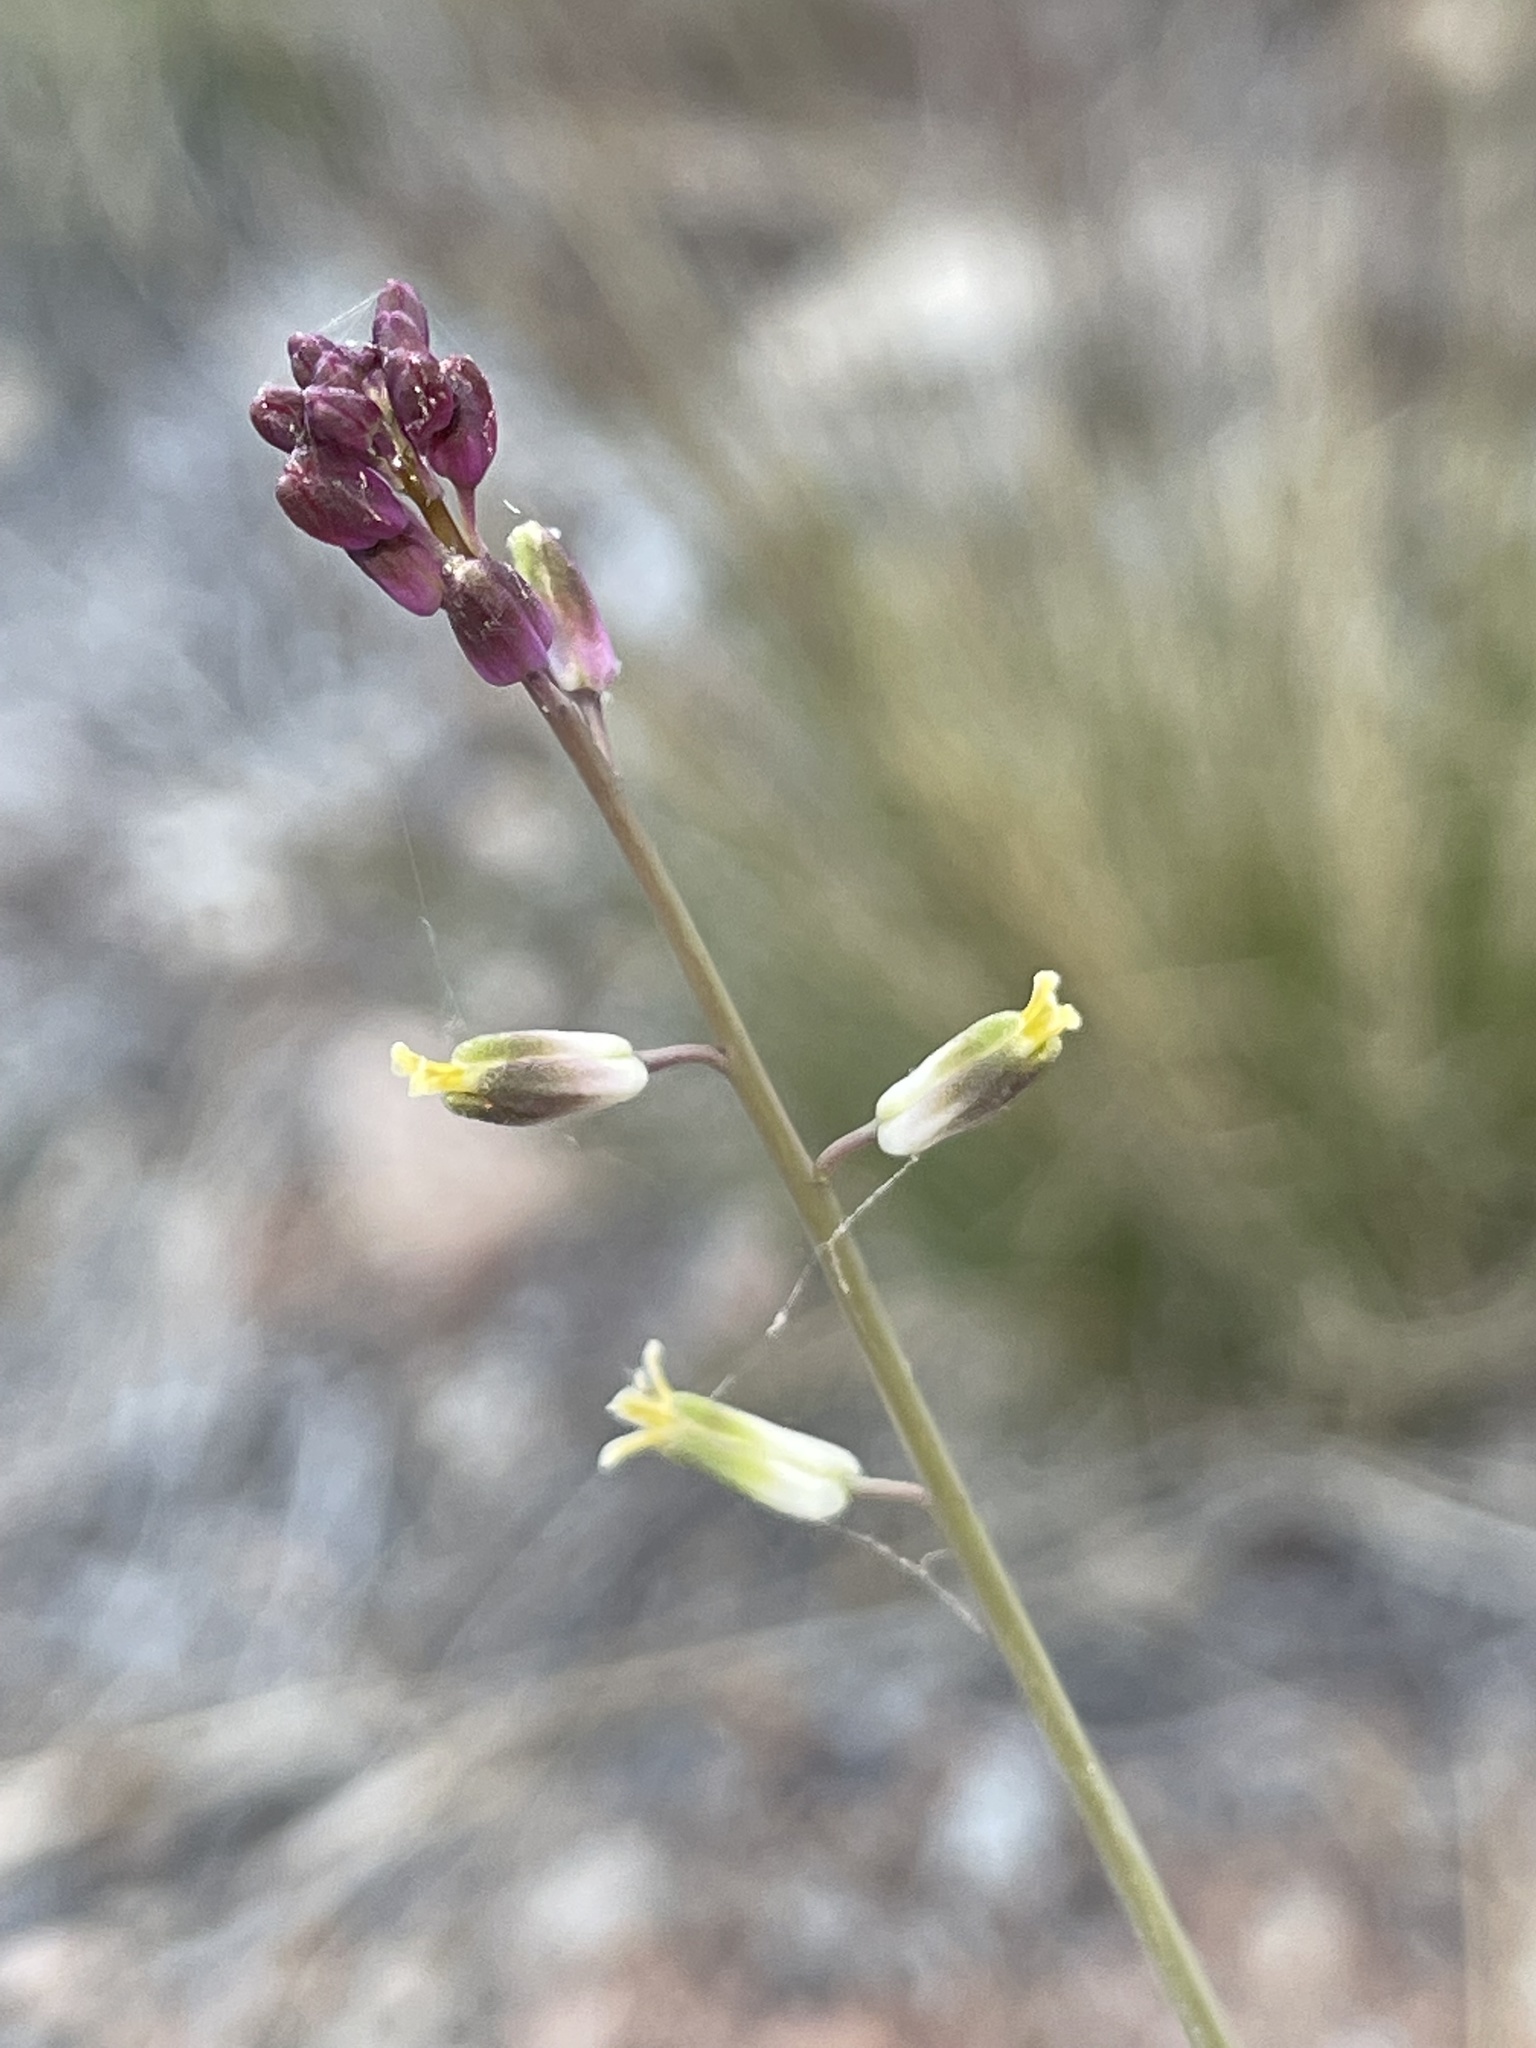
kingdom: Plantae
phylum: Tracheophyta
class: Magnoliopsida
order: Brassicales
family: Brassicaceae
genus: Streptanthus
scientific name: Streptanthus longirostris
